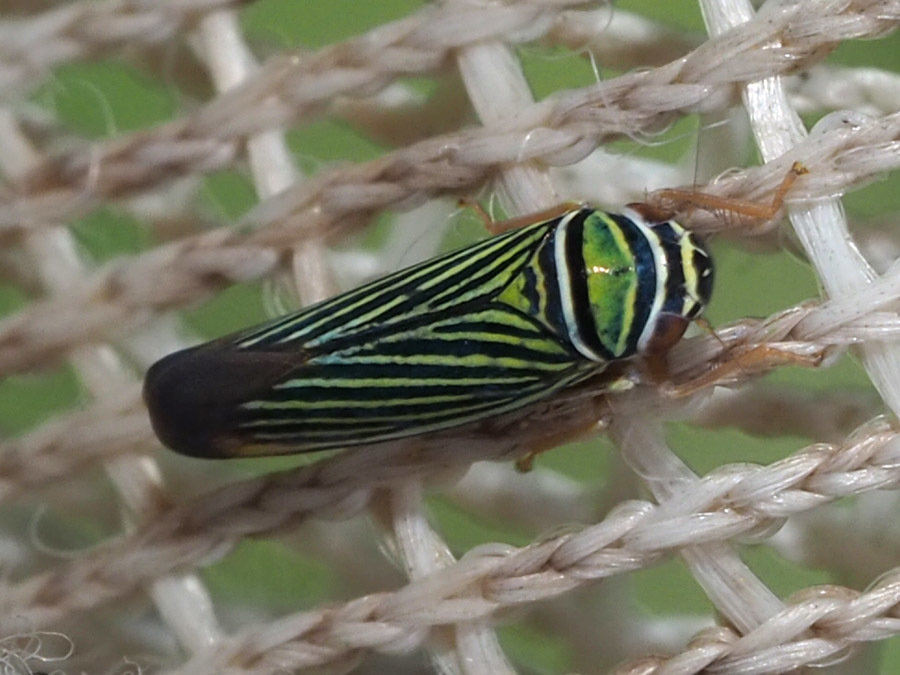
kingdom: Animalia
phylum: Arthropoda
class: Insecta
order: Hemiptera
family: Cicadellidae
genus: Tylozygus
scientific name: Tylozygus bifidus
